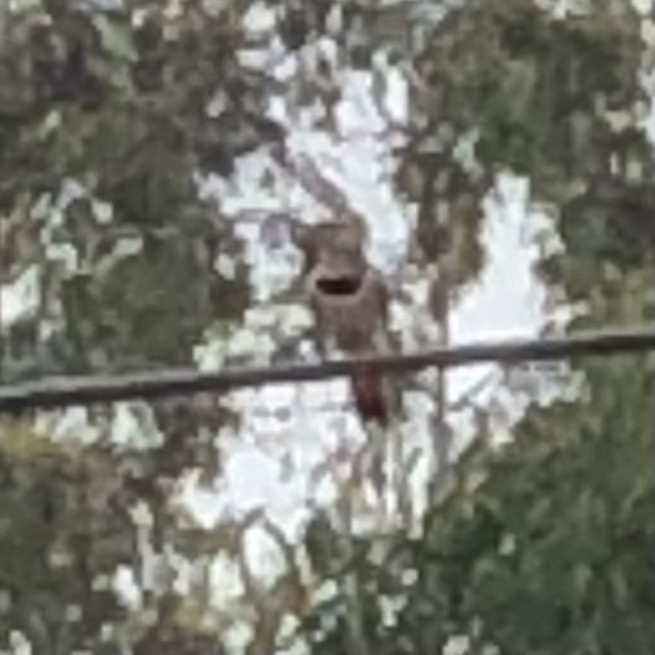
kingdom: Animalia
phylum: Chordata
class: Aves
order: Piciformes
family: Picidae
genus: Colaptes
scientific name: Colaptes auratus
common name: Northern flicker
